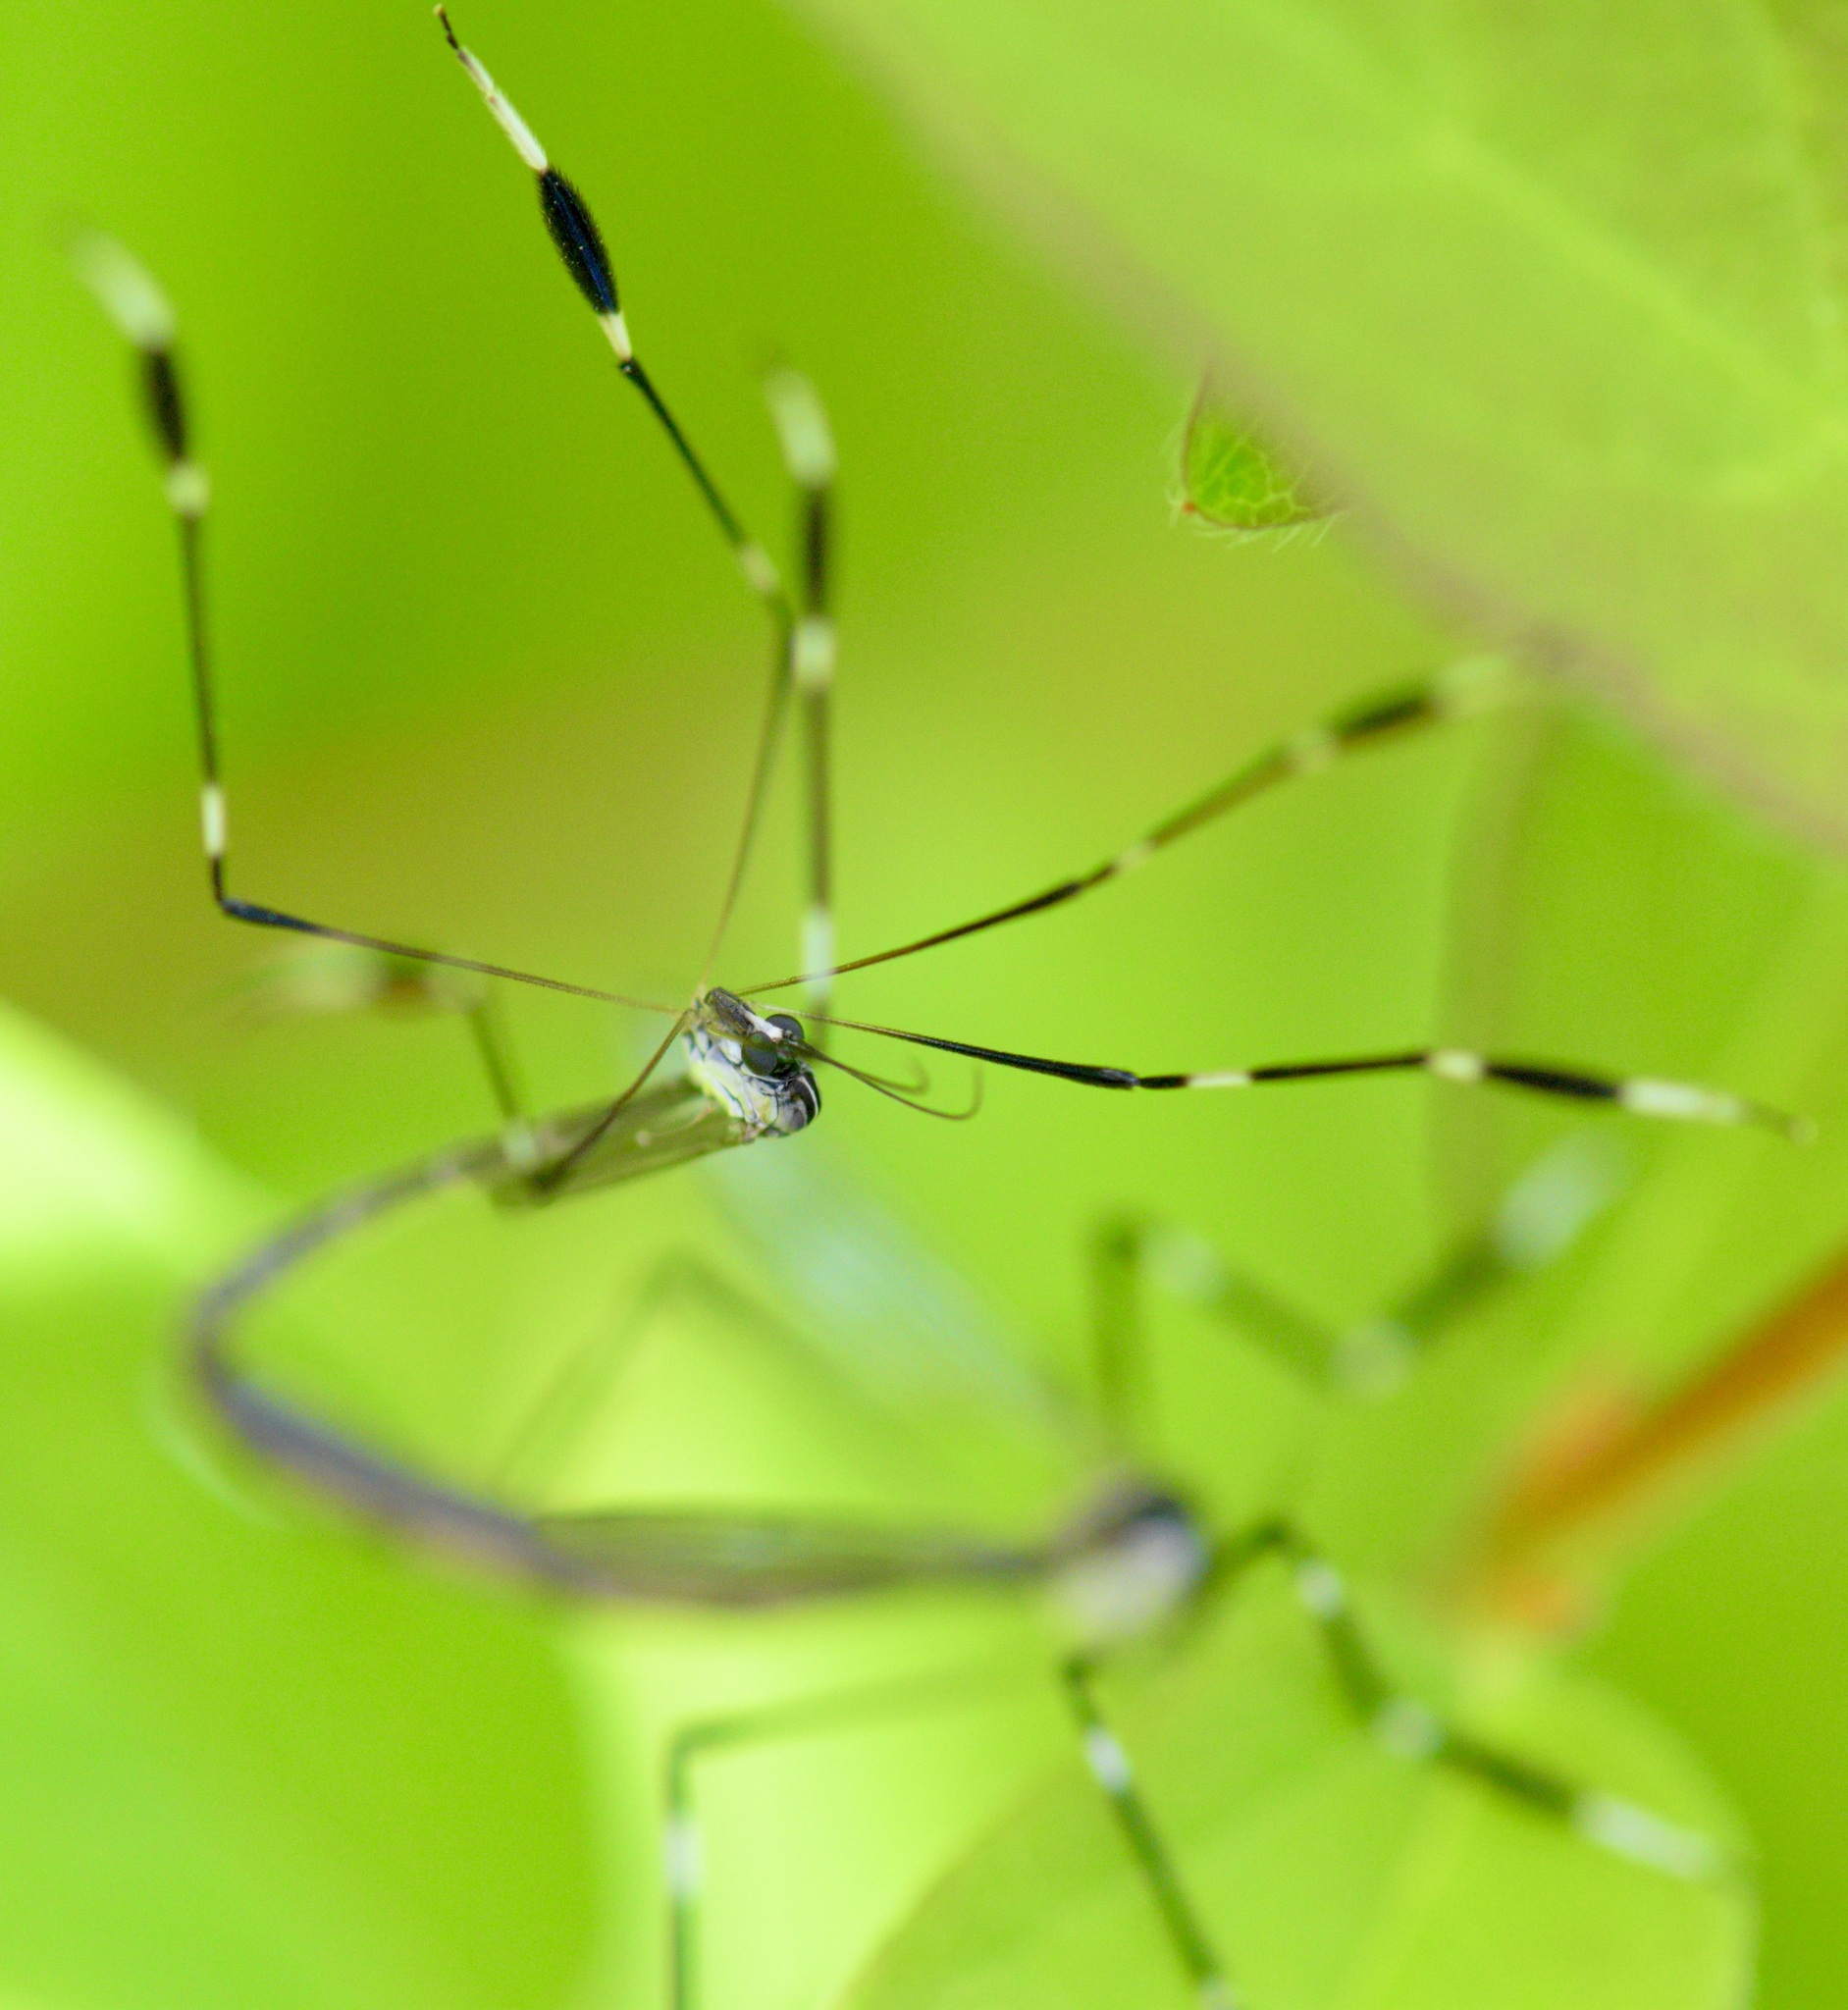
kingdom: Animalia
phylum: Arthropoda
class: Insecta
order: Diptera
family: Ptychopteridae
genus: Bittacomorpha
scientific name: Bittacomorpha clavipes
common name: Eastern phantom crane fly
